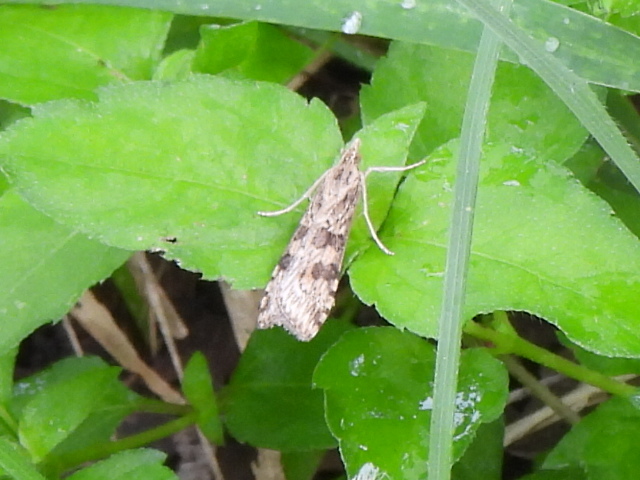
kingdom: Animalia
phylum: Arthropoda
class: Insecta
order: Lepidoptera
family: Crambidae
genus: Nomophila
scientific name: Nomophila nearctica
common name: American rush veneer
